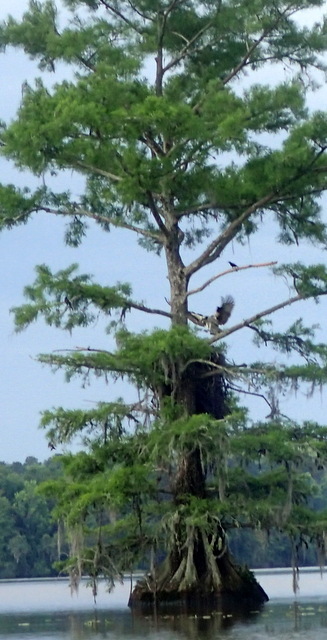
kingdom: Animalia
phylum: Chordata
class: Aves
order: Accipitriformes
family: Pandionidae
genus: Pandion
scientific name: Pandion haliaetus
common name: Osprey
